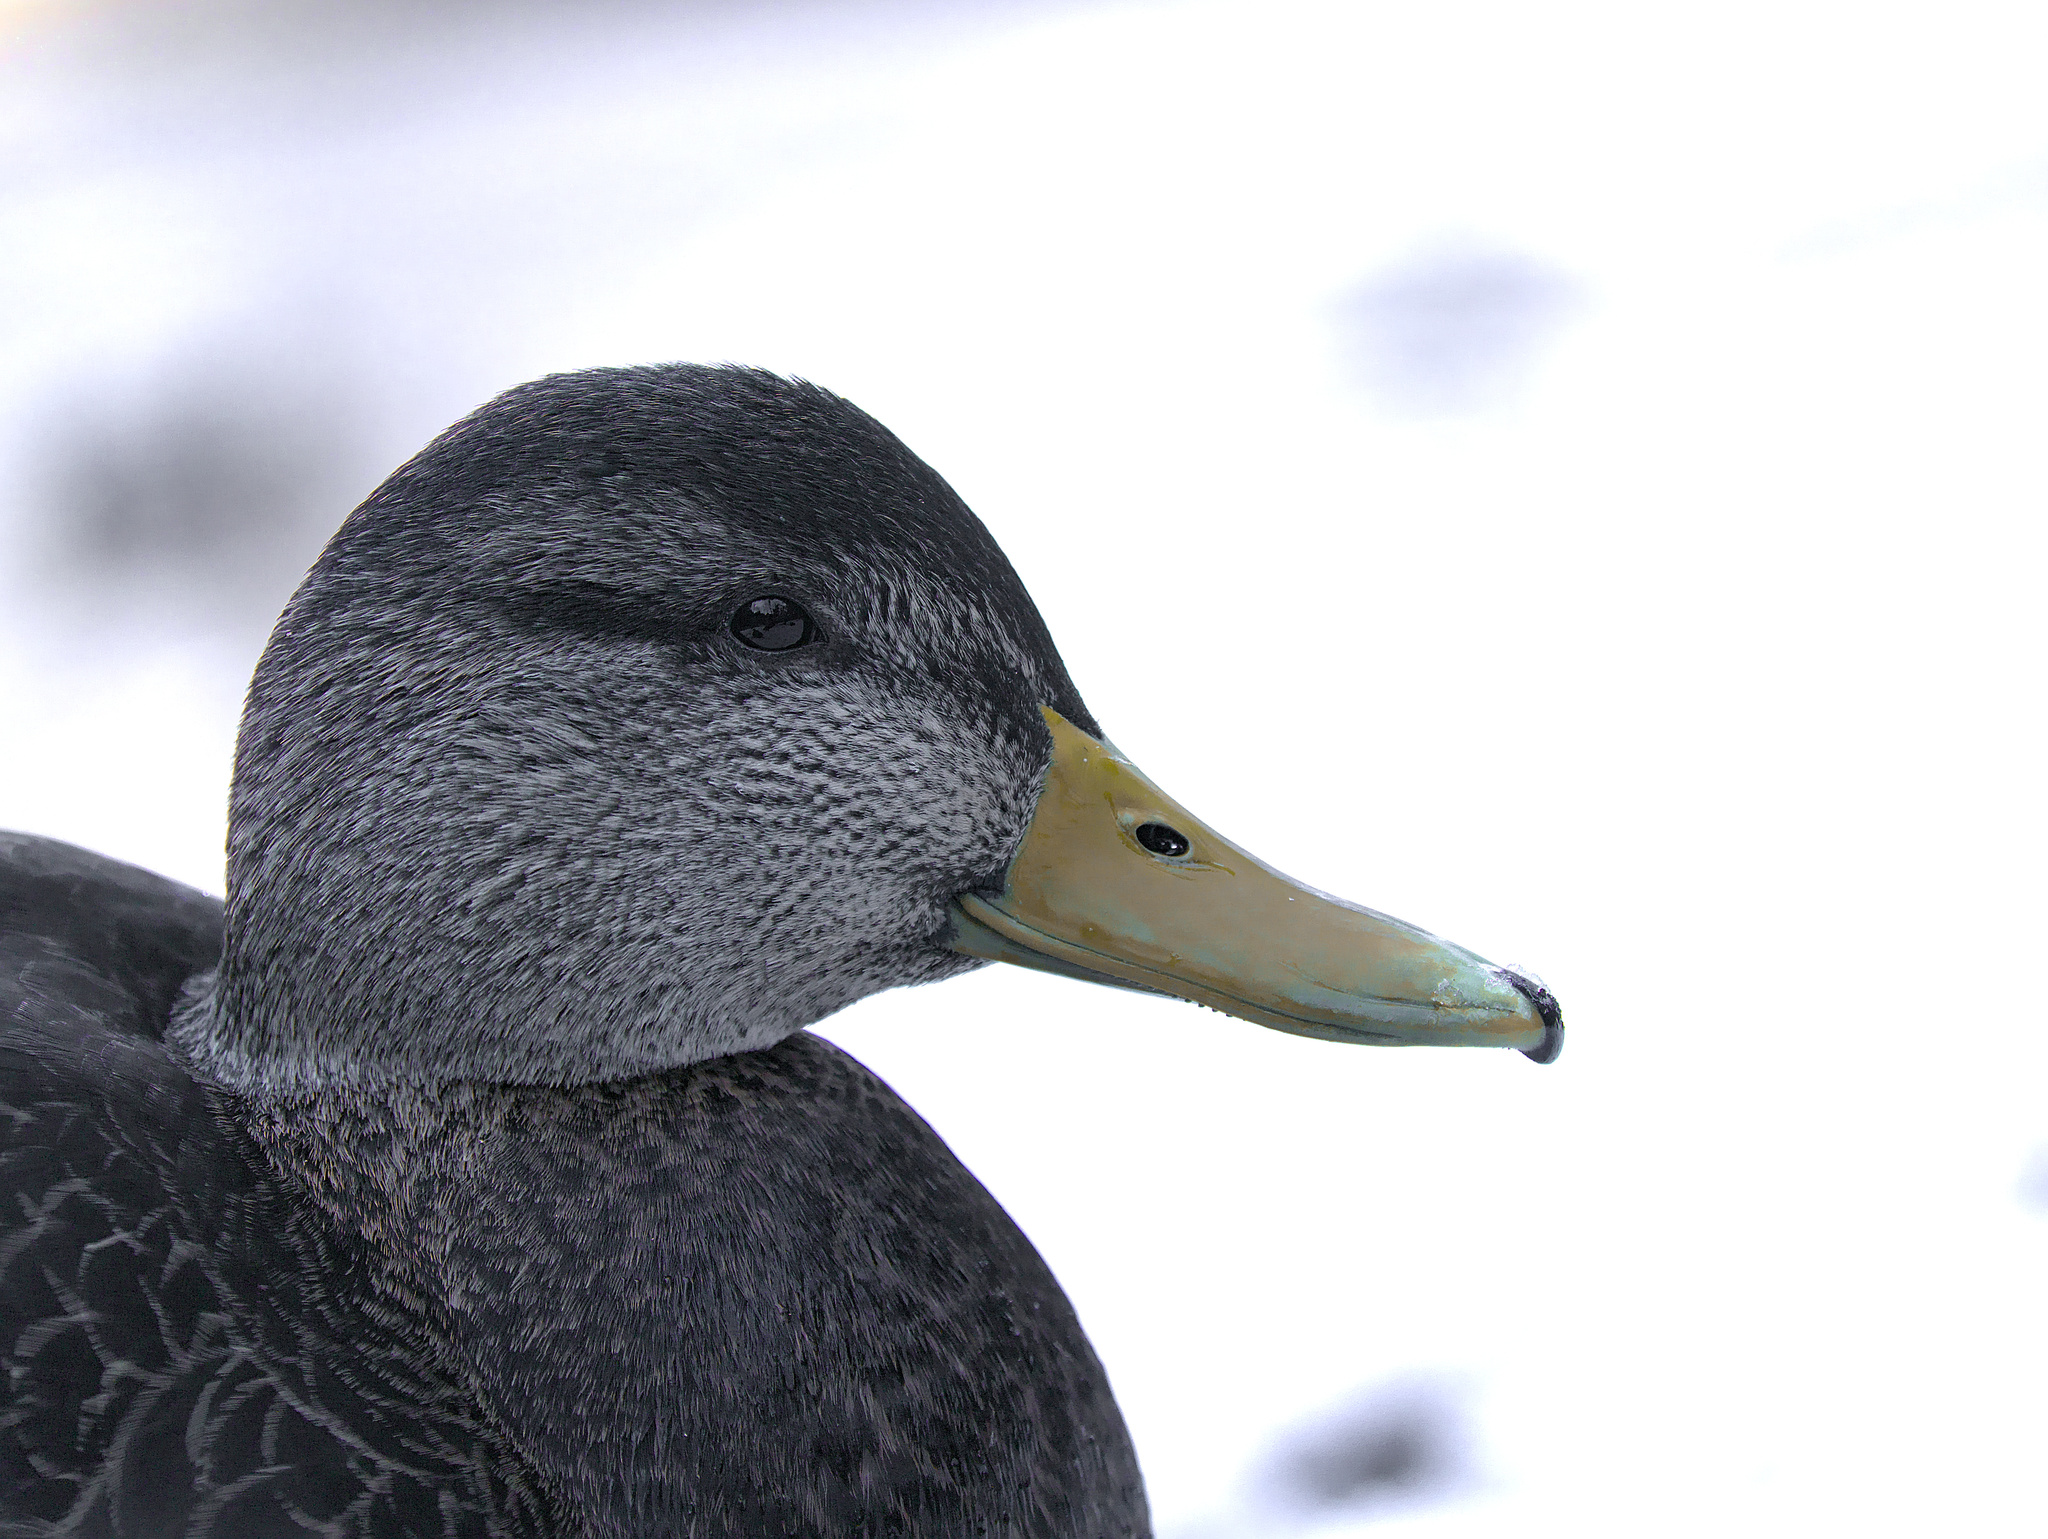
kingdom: Animalia
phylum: Chordata
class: Aves
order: Anseriformes
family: Anatidae
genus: Anas
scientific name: Anas rubripes
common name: American black duck
